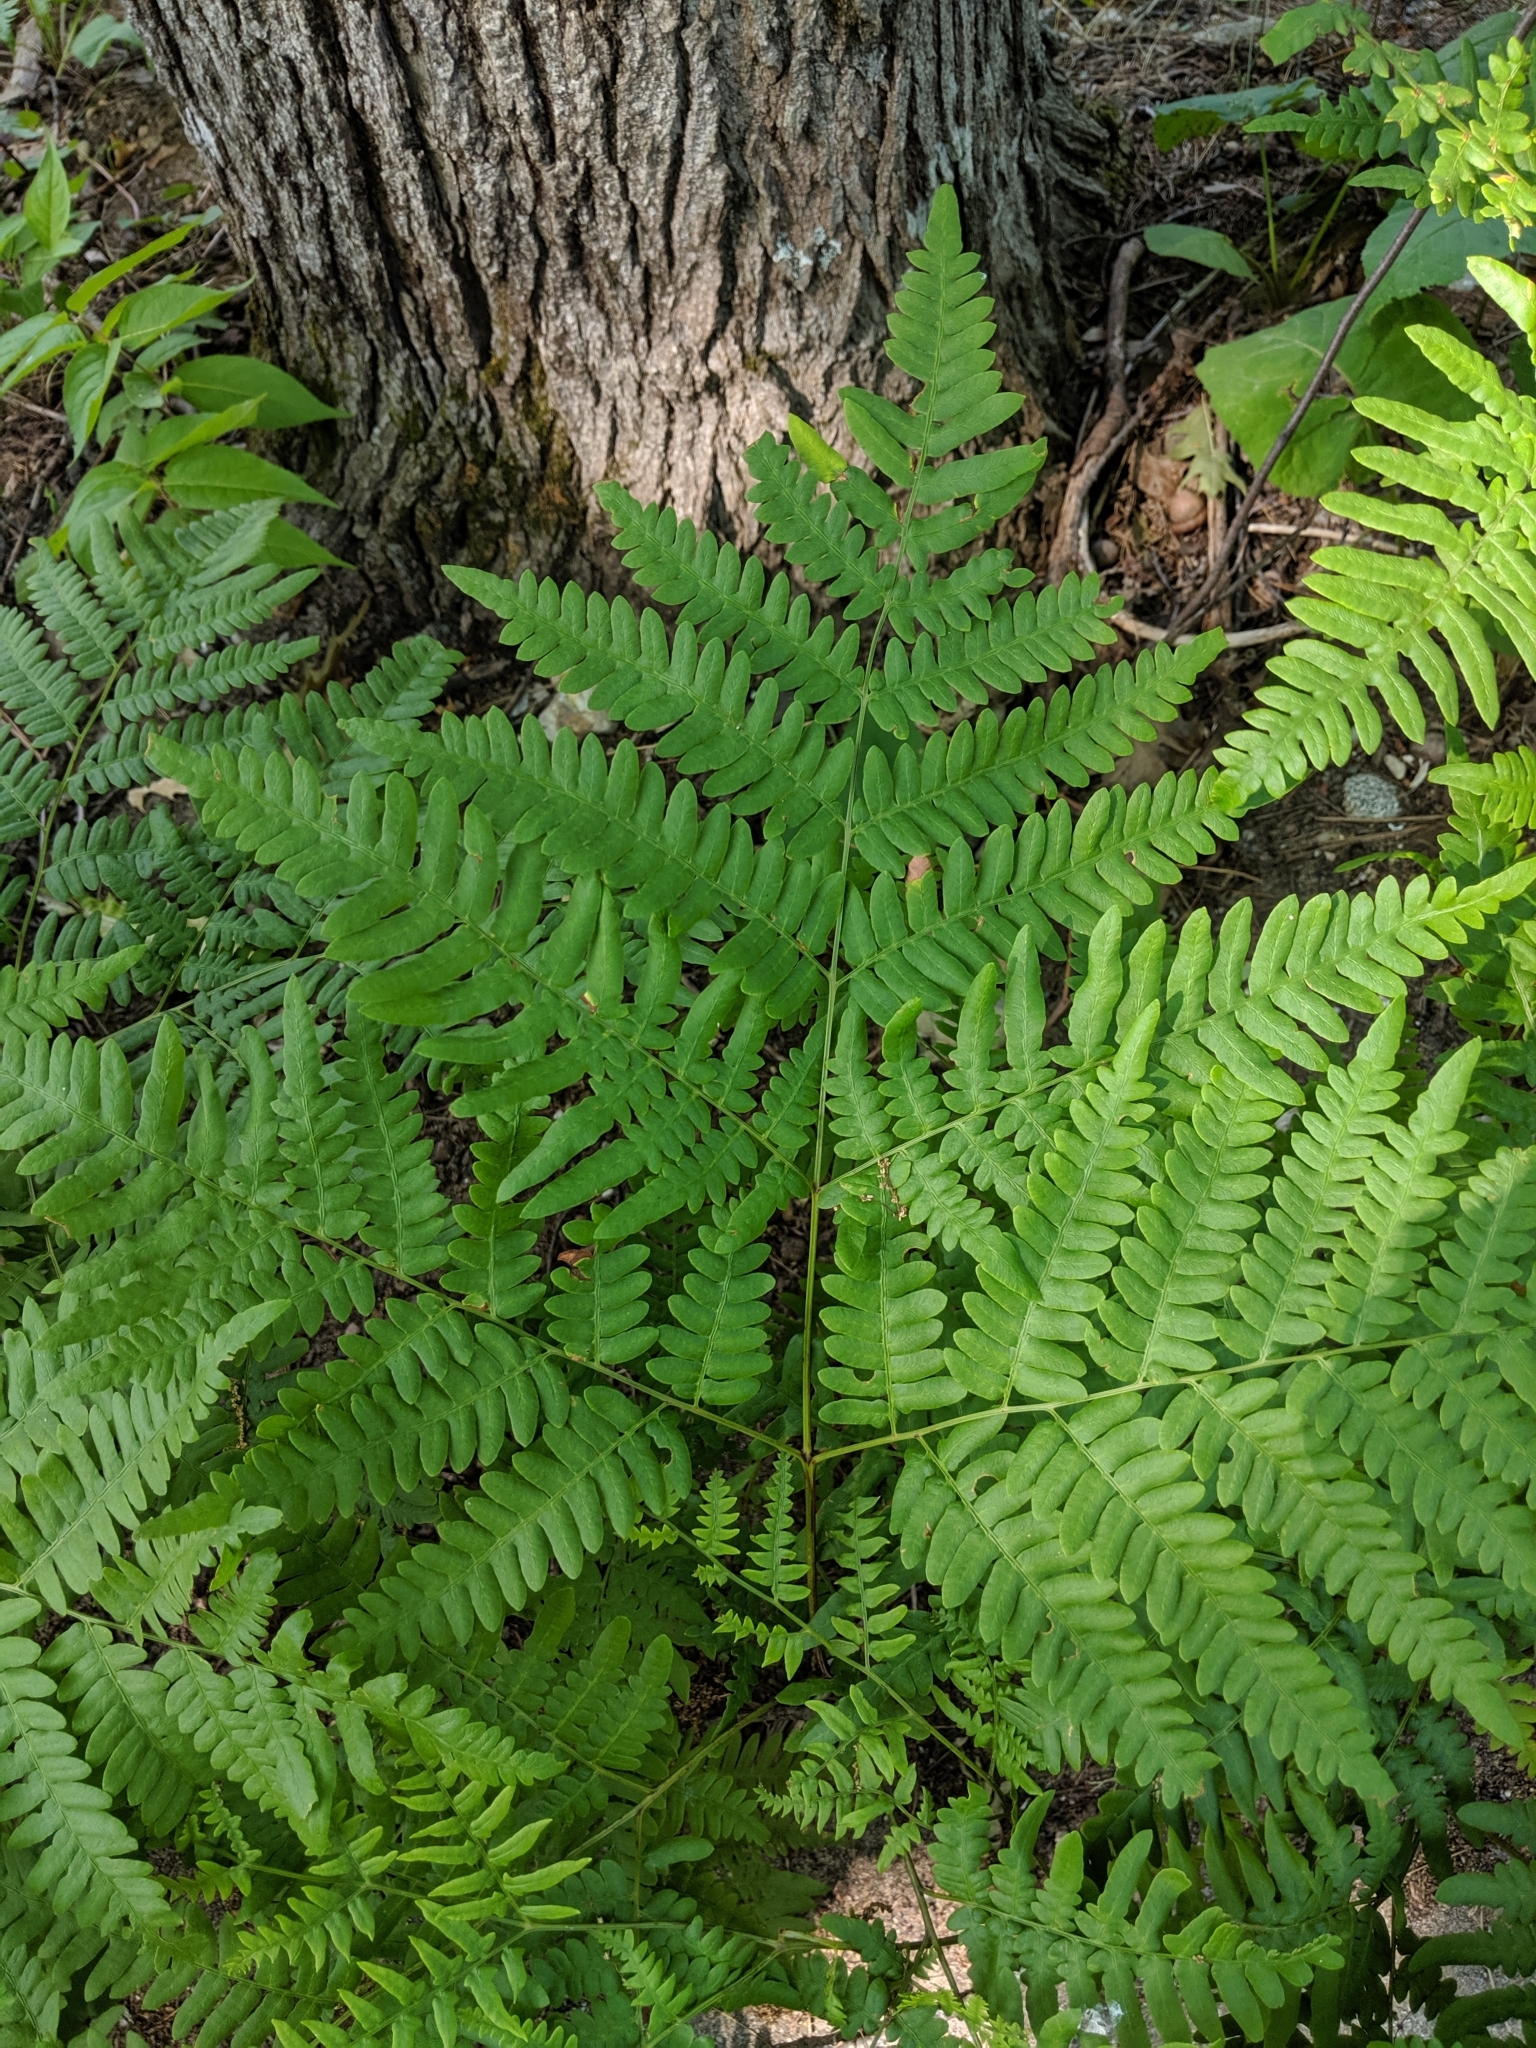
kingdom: Plantae
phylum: Tracheophyta
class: Polypodiopsida
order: Polypodiales
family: Dennstaedtiaceae
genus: Pteridium
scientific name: Pteridium aquilinum
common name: Bracken
